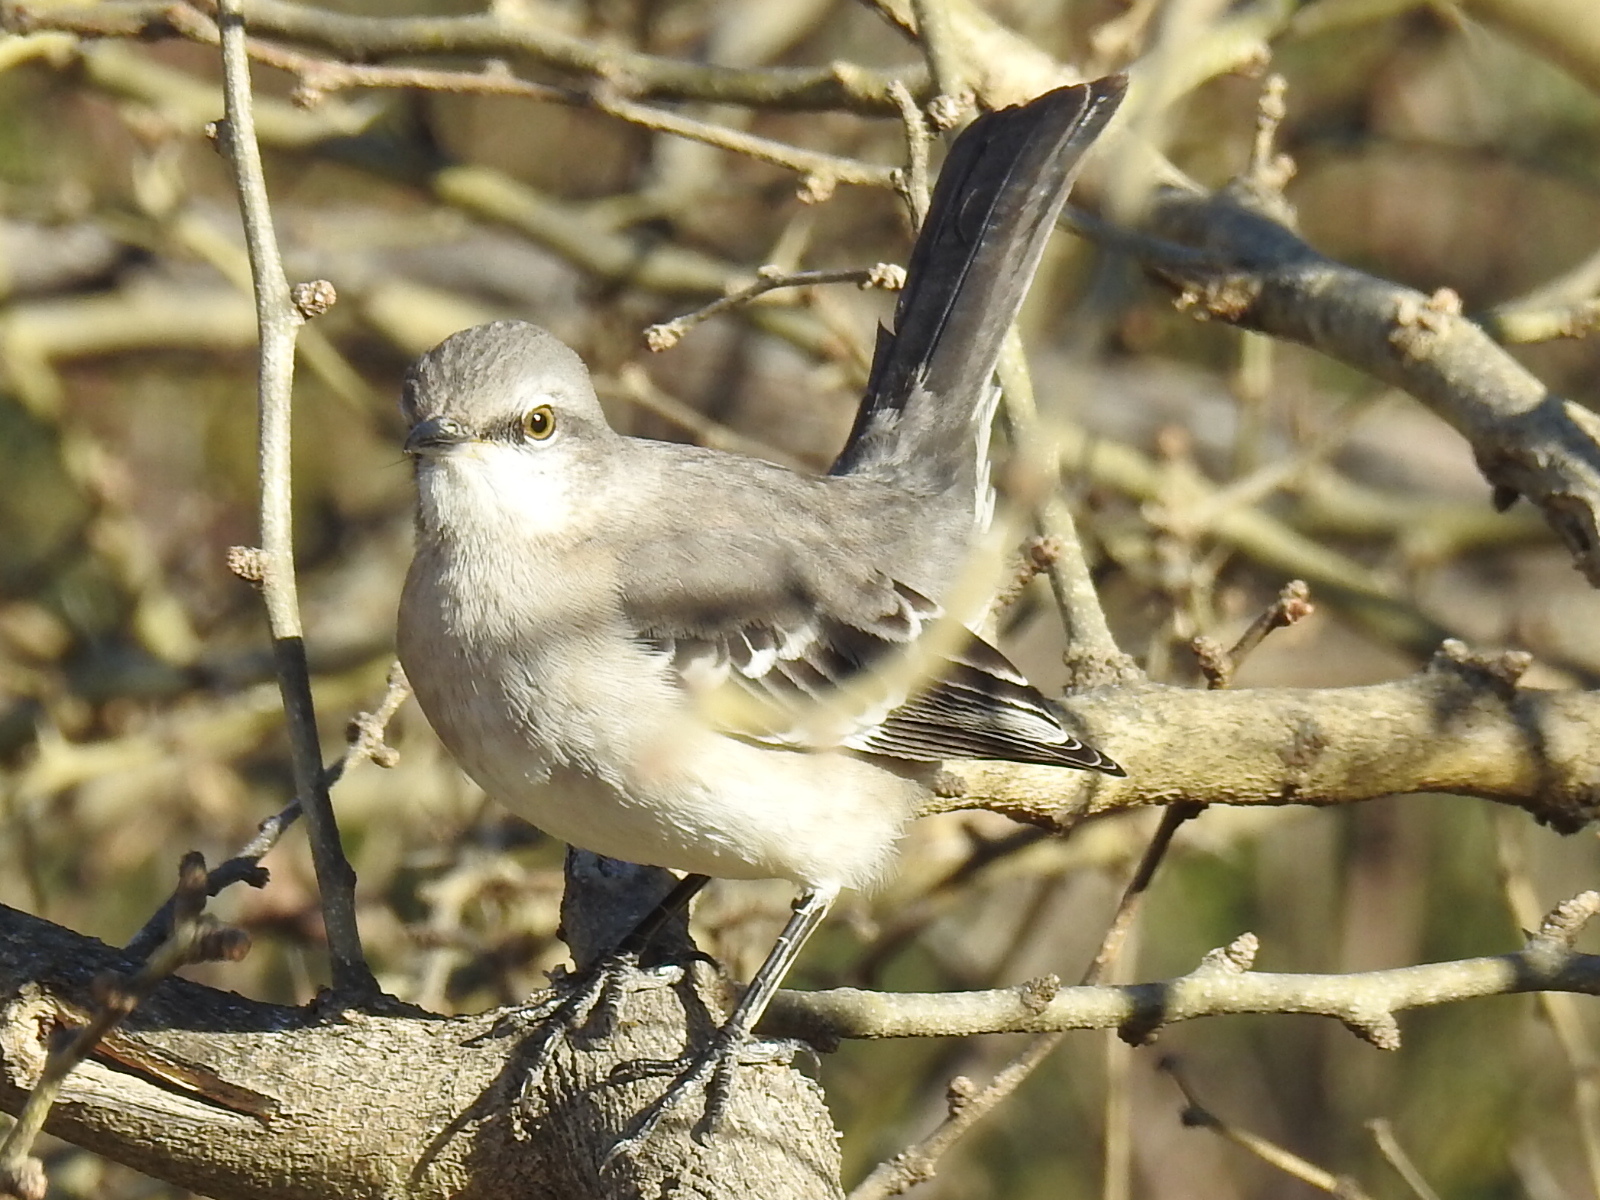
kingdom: Animalia
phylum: Chordata
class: Aves
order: Passeriformes
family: Mimidae
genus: Mimus
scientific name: Mimus polyglottos
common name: Northern mockingbird
